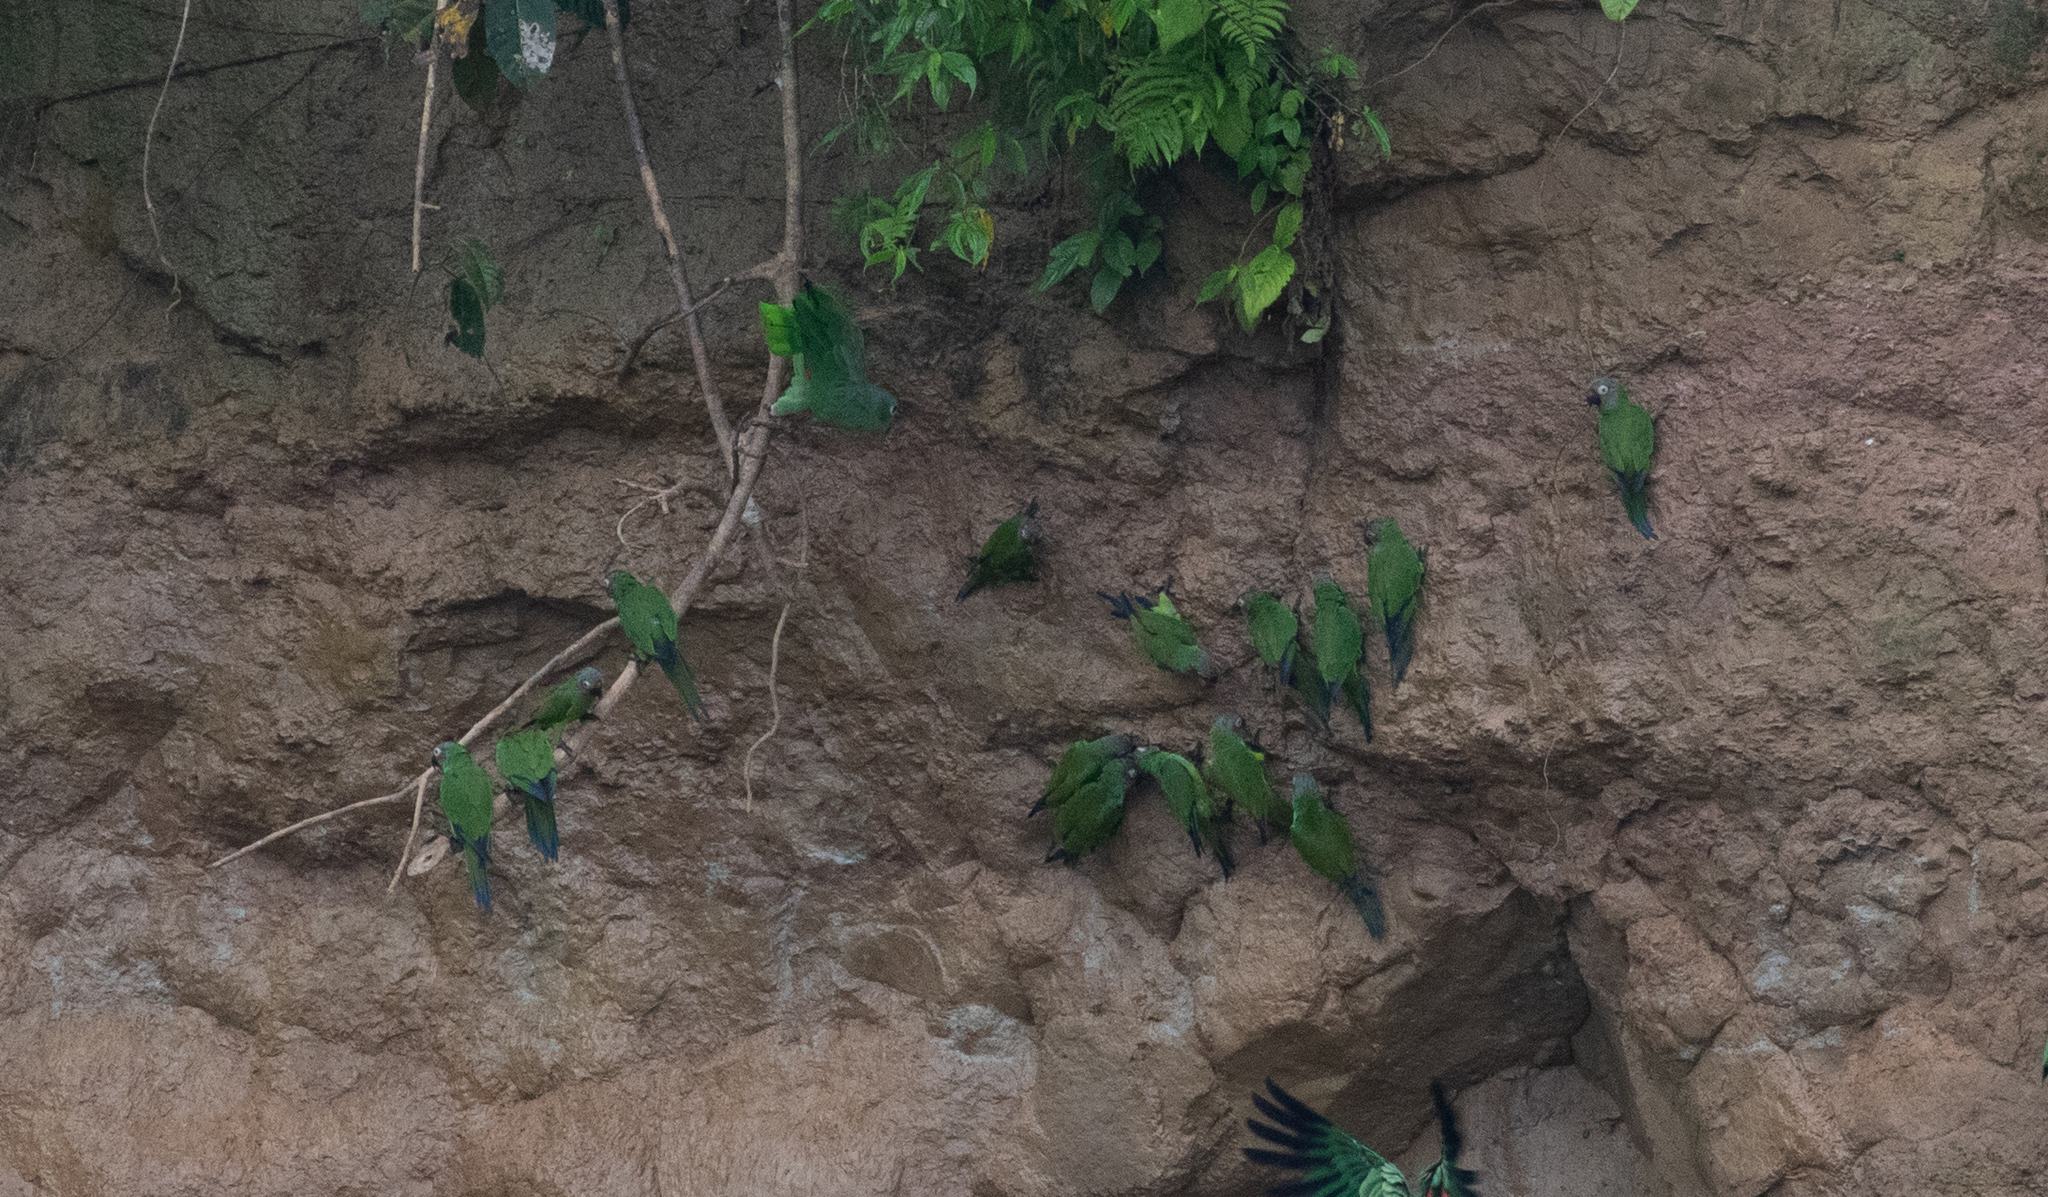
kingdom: Animalia
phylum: Chordata
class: Aves
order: Psittaciformes
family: Psittacidae
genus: Aratinga
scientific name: Aratinga weddellii
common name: Dusky-headed parakeet
